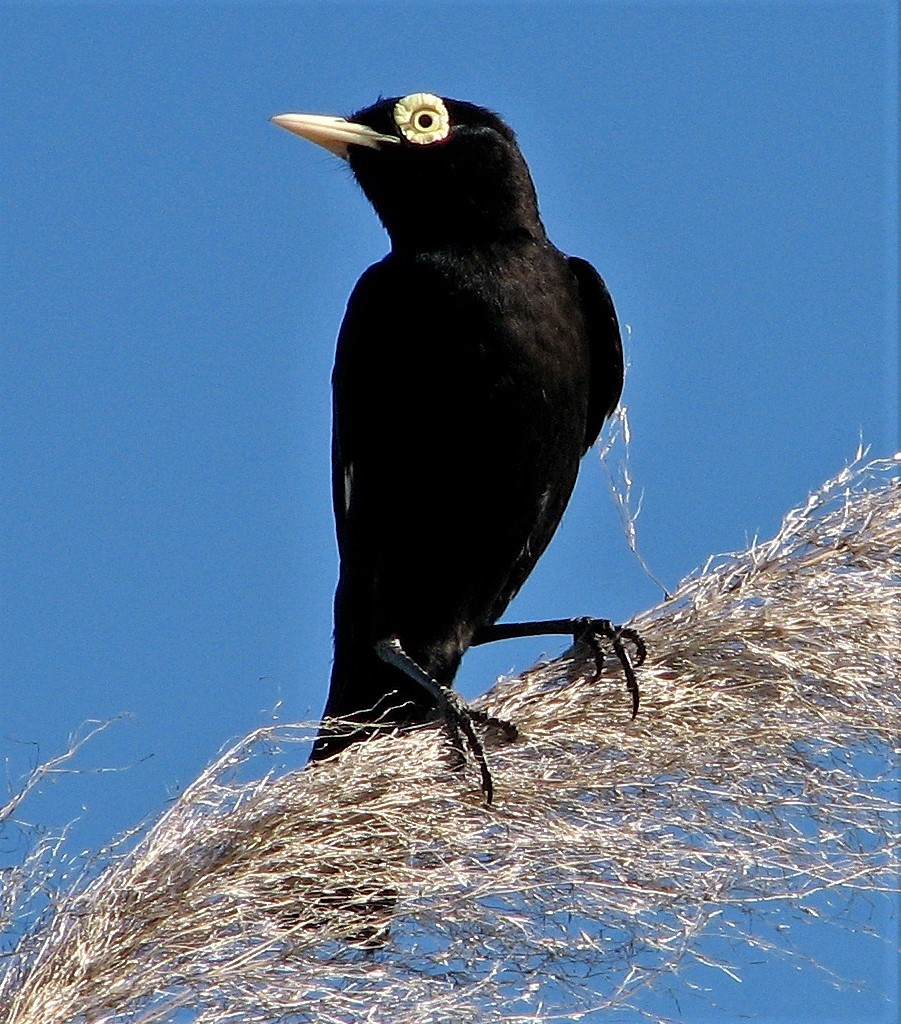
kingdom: Animalia
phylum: Chordata
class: Aves
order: Passeriformes
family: Tyrannidae
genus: Hymenops
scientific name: Hymenops perspicillatus
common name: Spectacled tyrant
